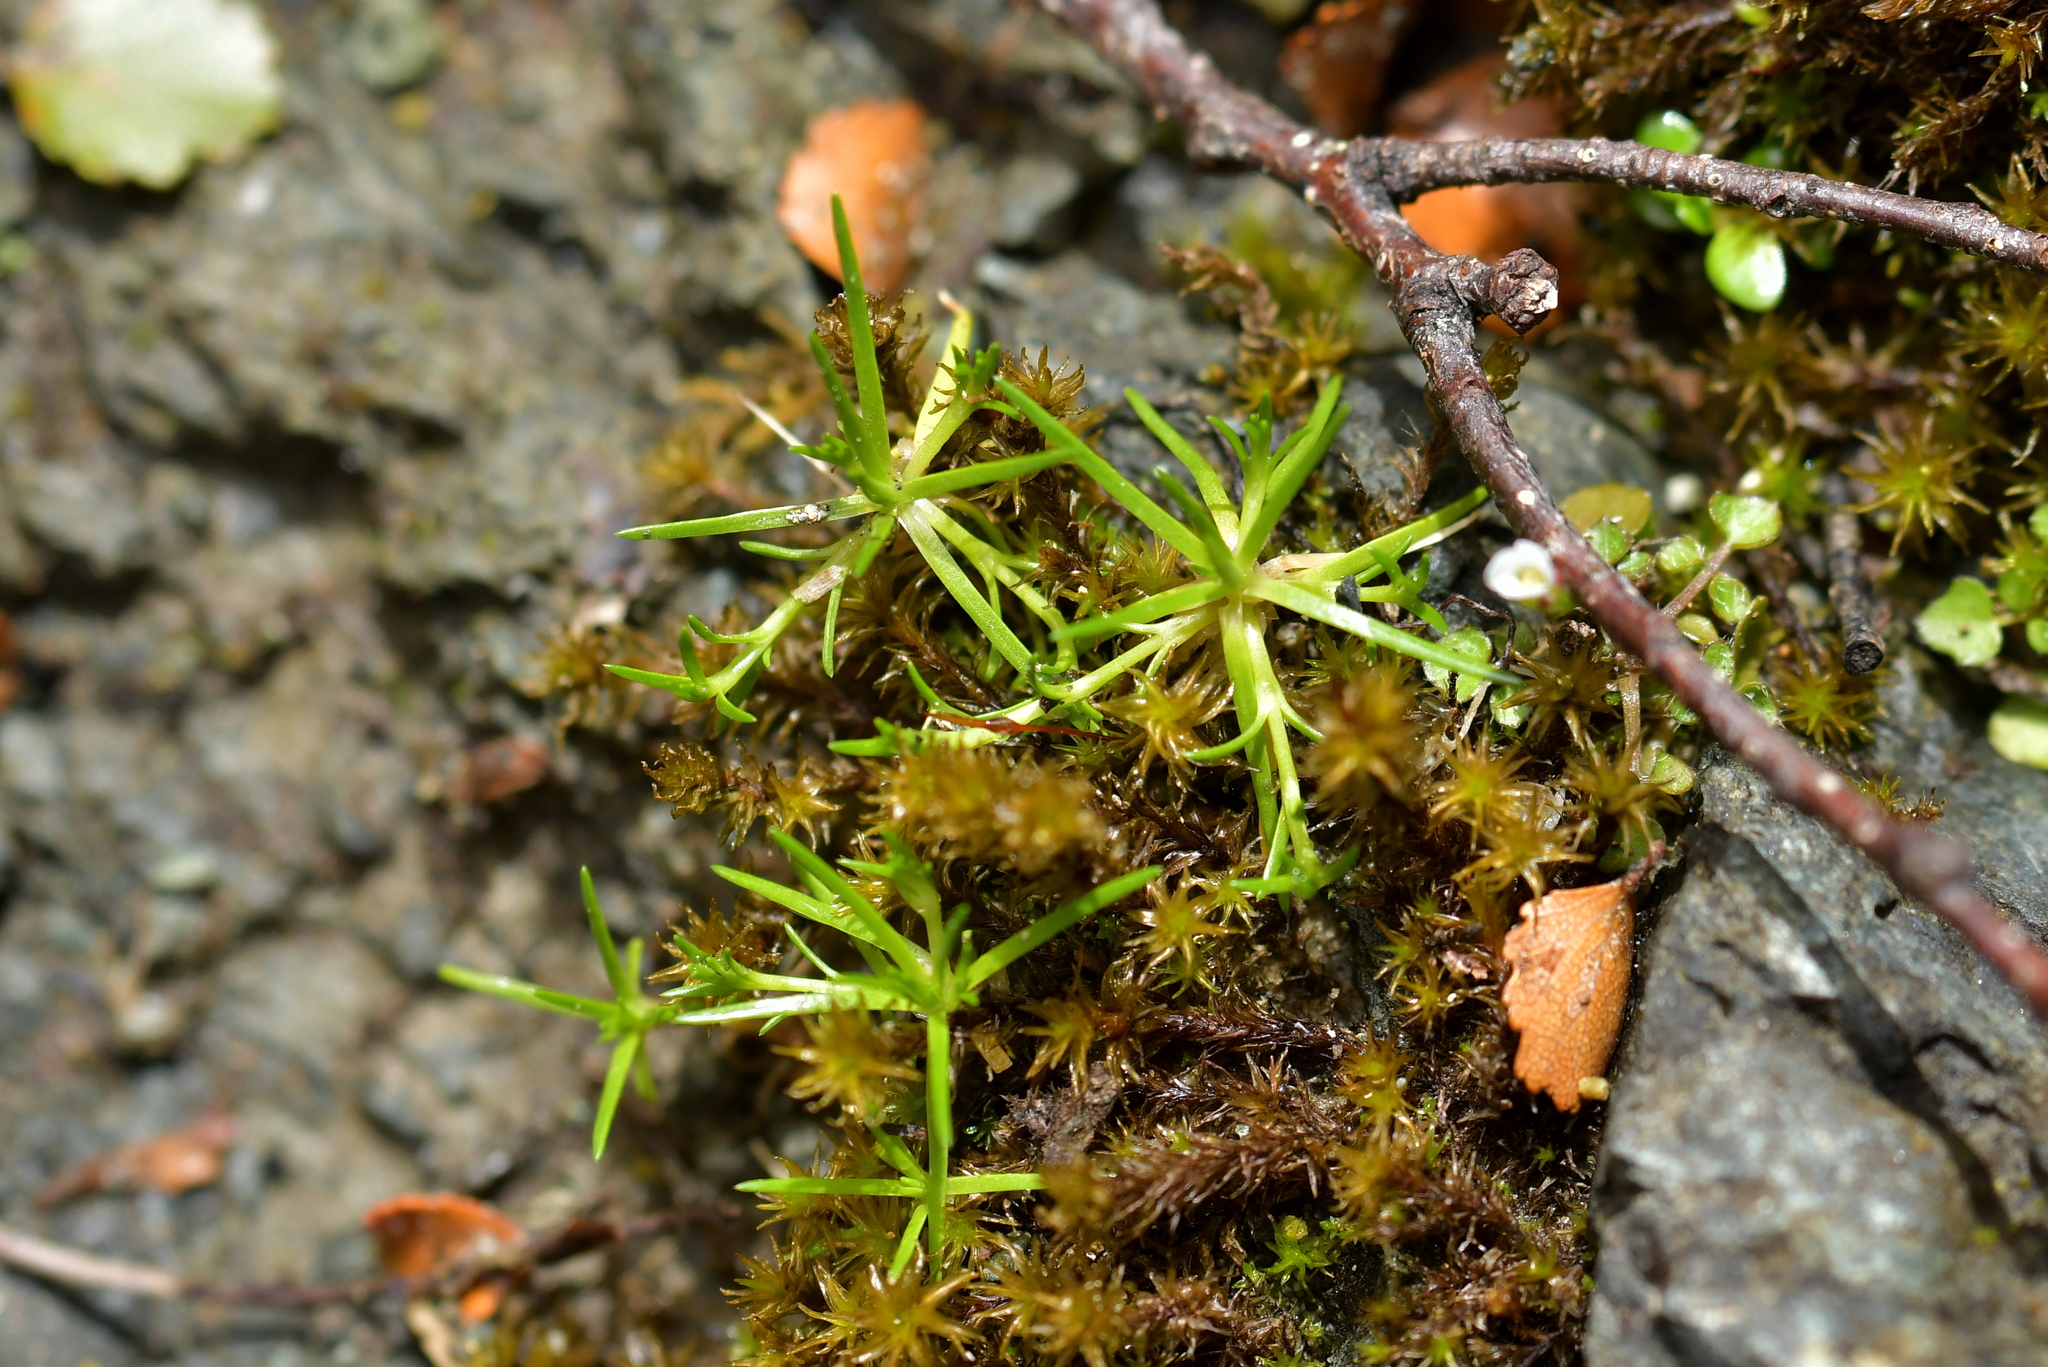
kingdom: Plantae
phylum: Tracheophyta
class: Magnoliopsida
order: Caryophyllales
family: Caryophyllaceae
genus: Sagina
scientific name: Sagina procumbens
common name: Procumbent pearlwort
